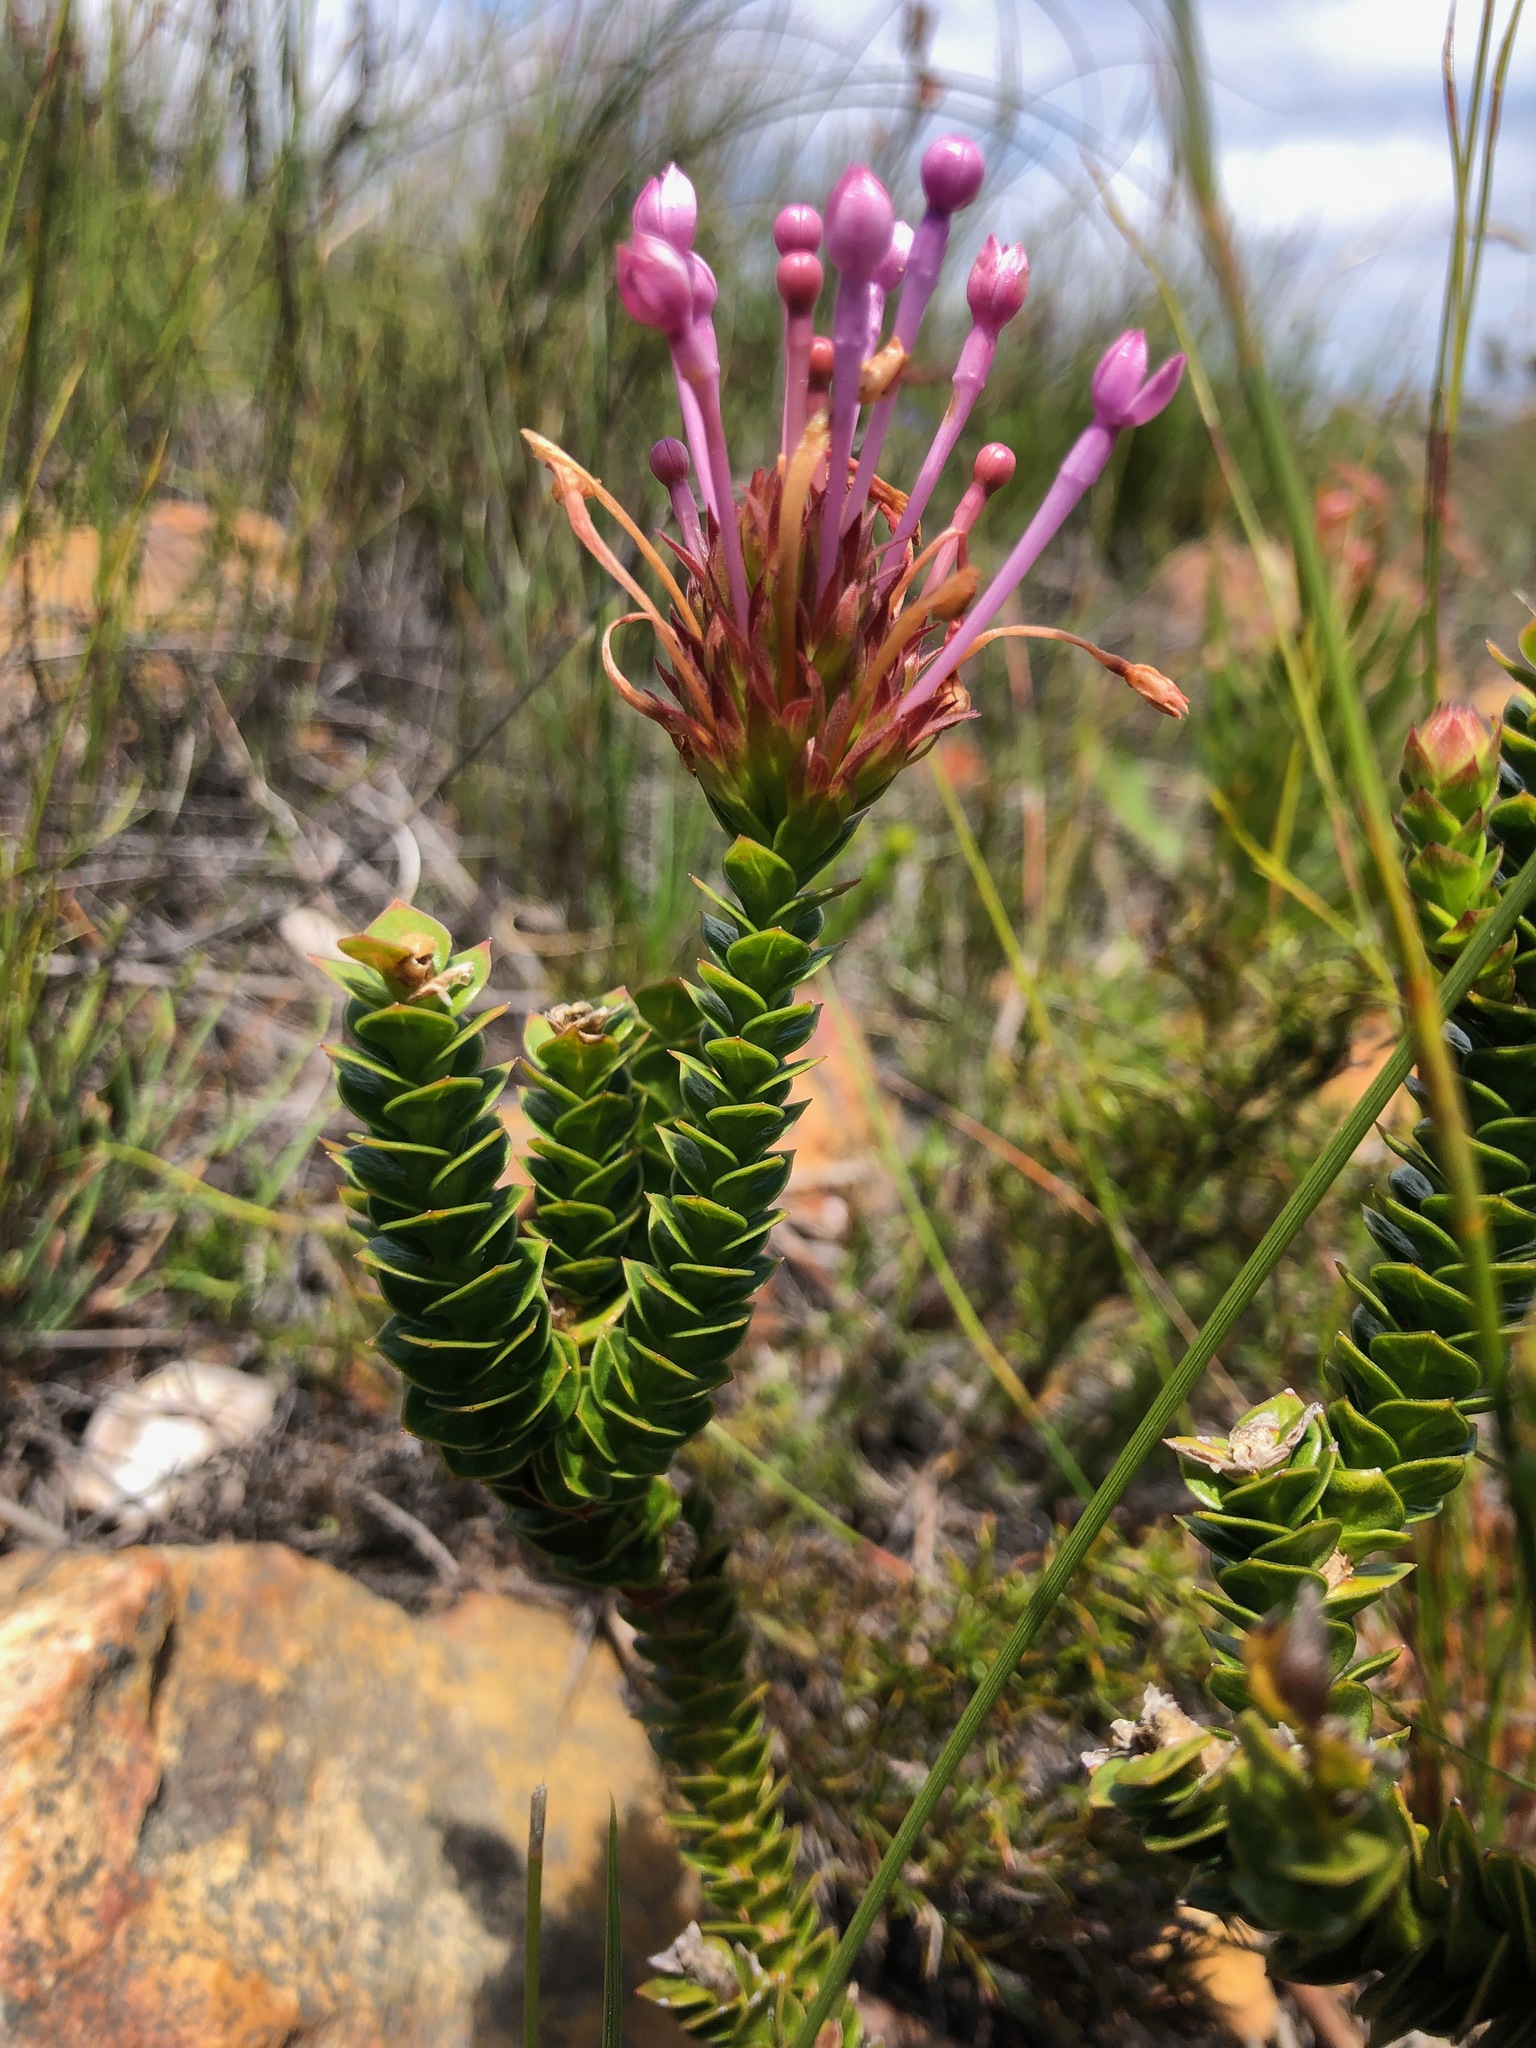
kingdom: Plantae
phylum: Tracheophyta
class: Magnoliopsida
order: Asterales
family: Campanulaceae
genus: Rhigiophyllum
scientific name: Rhigiophyllum squarrosum
